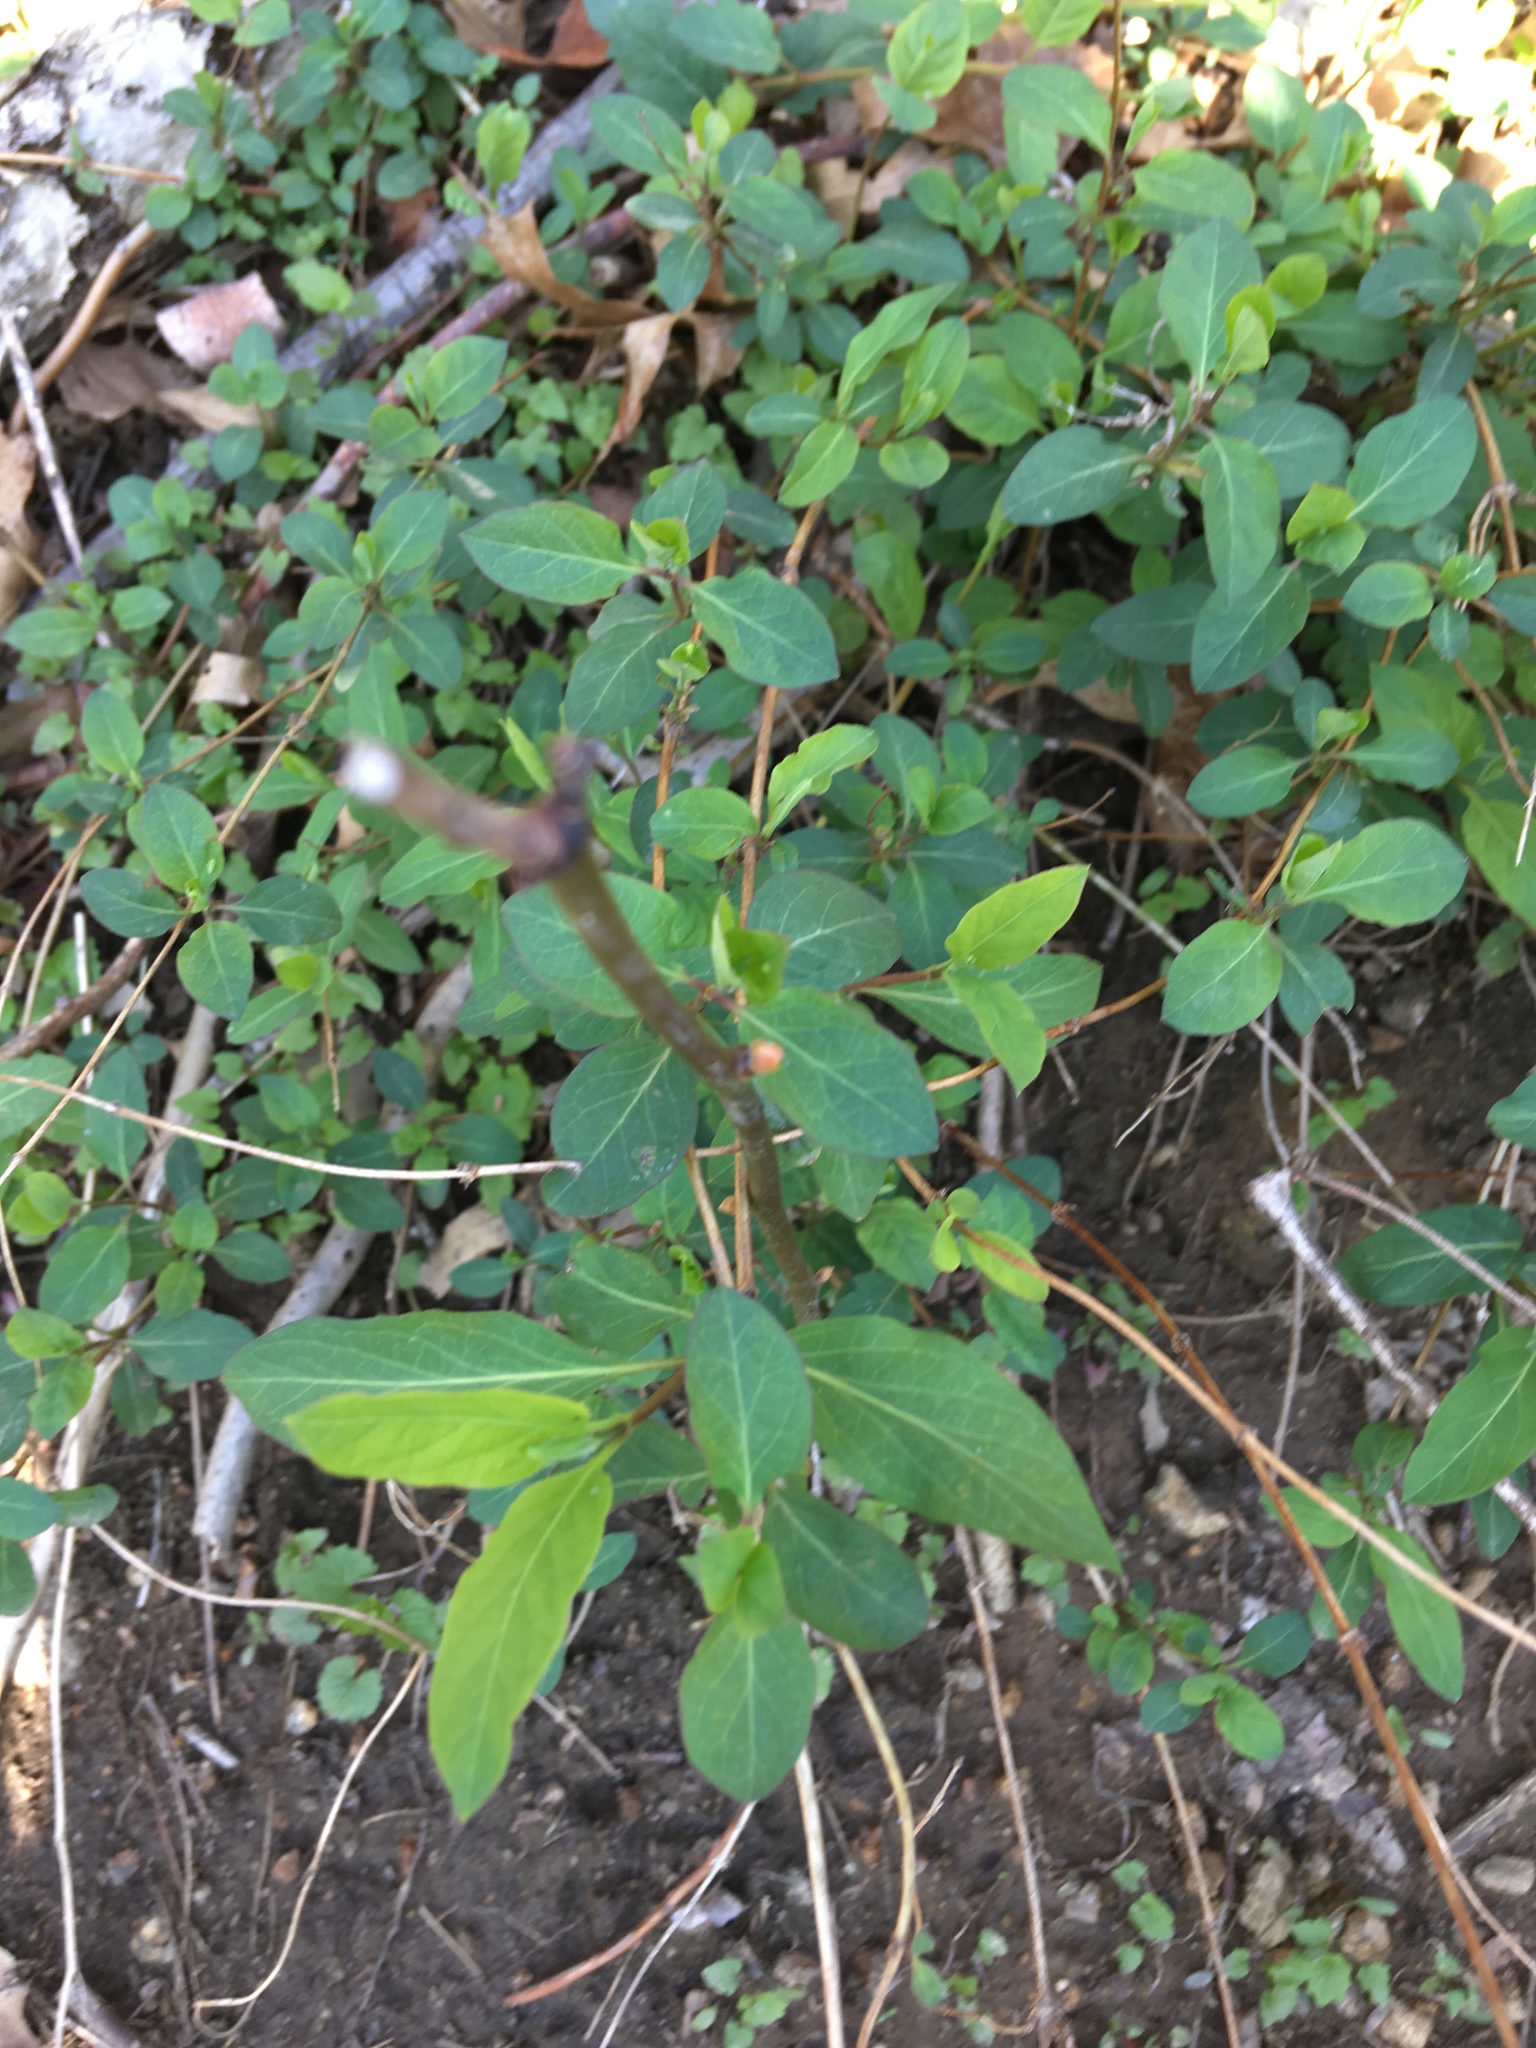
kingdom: Plantae
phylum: Tracheophyta
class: Magnoliopsida
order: Dipsacales
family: Caprifoliaceae
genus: Lonicera
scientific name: Lonicera japonica
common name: Japanese honeysuckle
